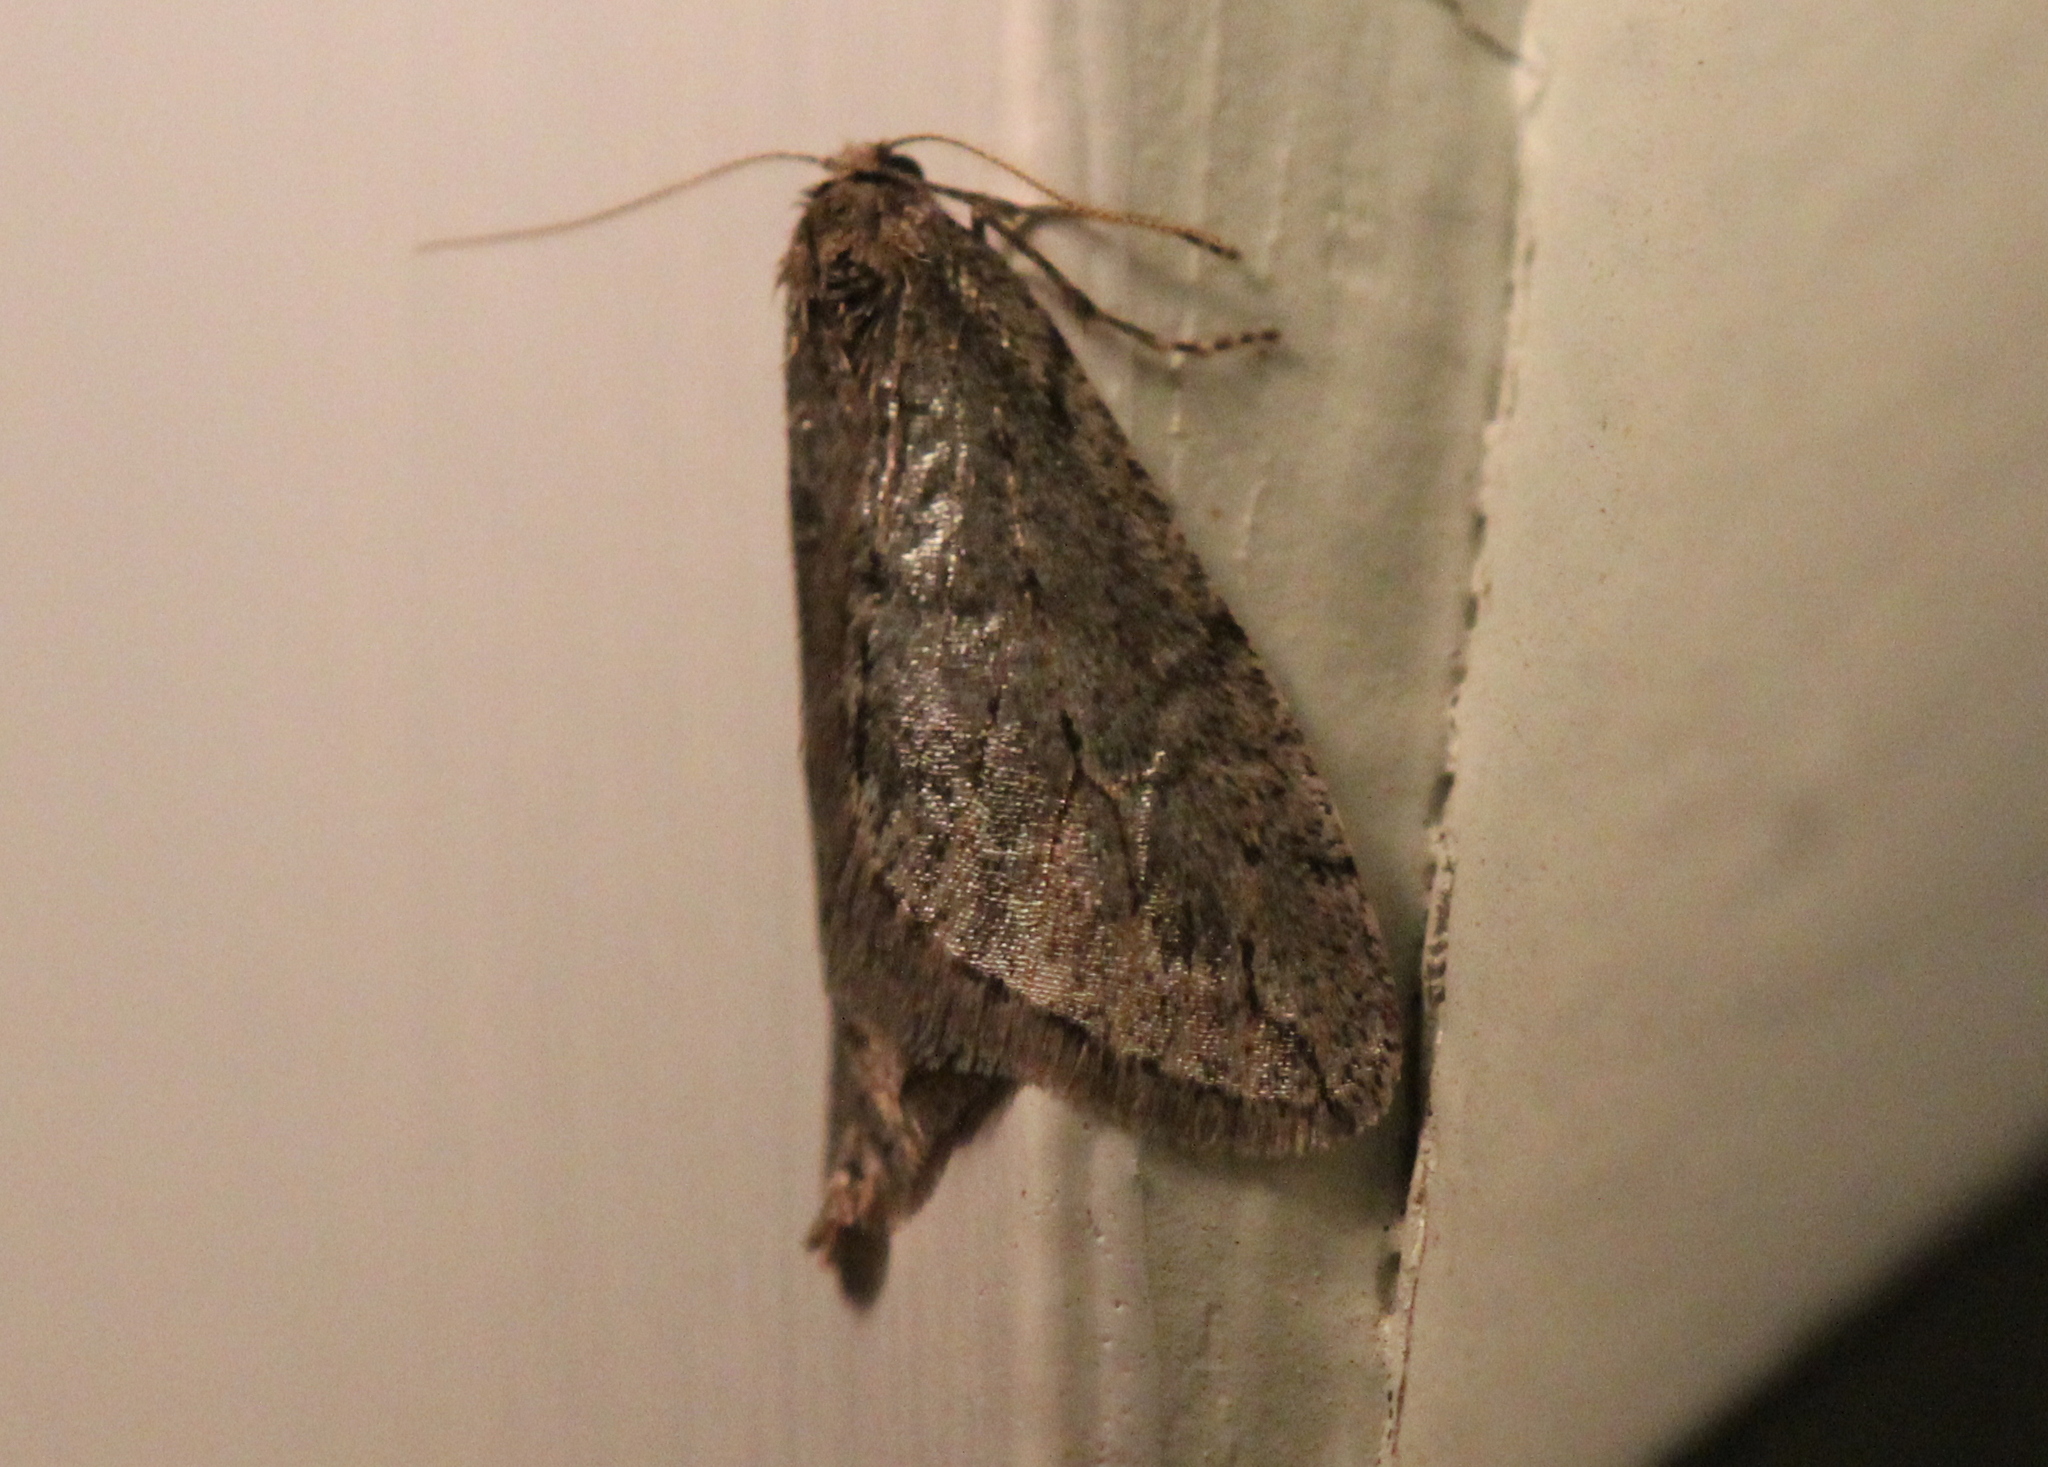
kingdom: Animalia
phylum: Arthropoda
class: Insecta
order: Lepidoptera
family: Geometridae
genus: Paleacrita
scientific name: Paleacrita vernata
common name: Spring cankerworm
